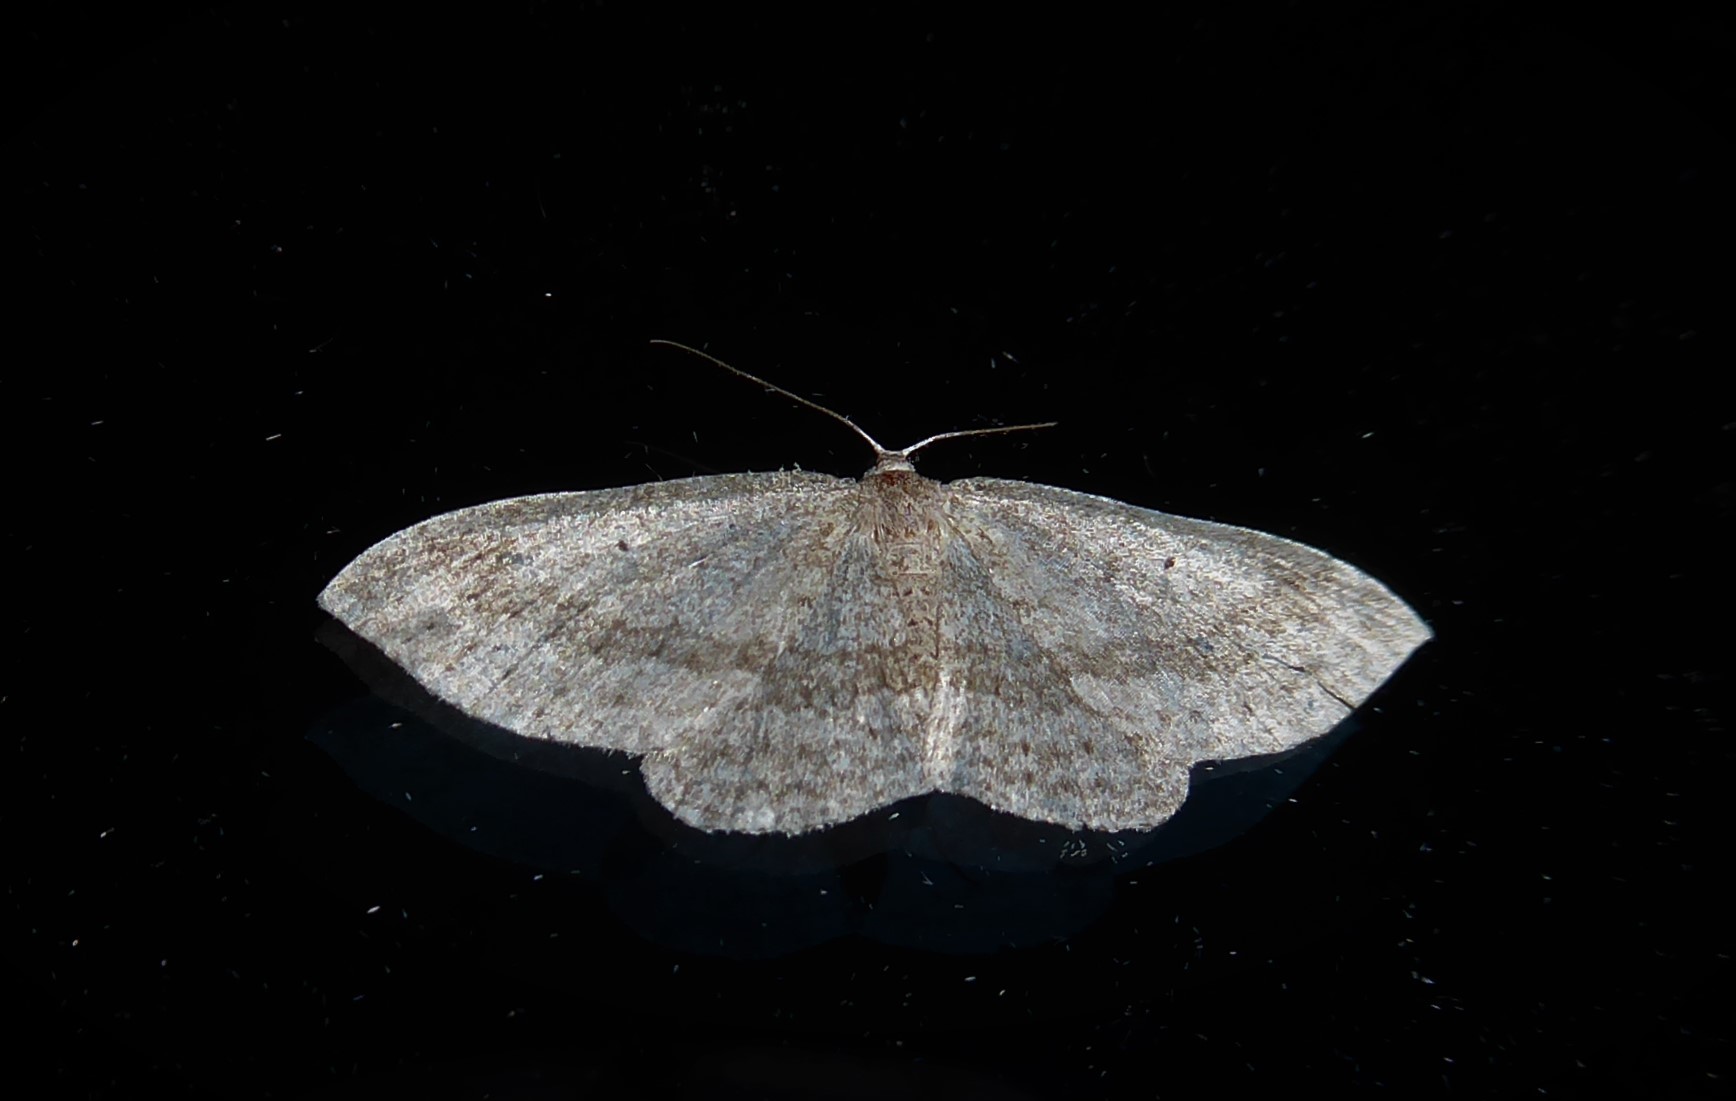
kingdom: Animalia
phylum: Arthropoda
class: Insecta
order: Lepidoptera
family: Geometridae
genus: Poecilasthena
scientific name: Poecilasthena schistaria
